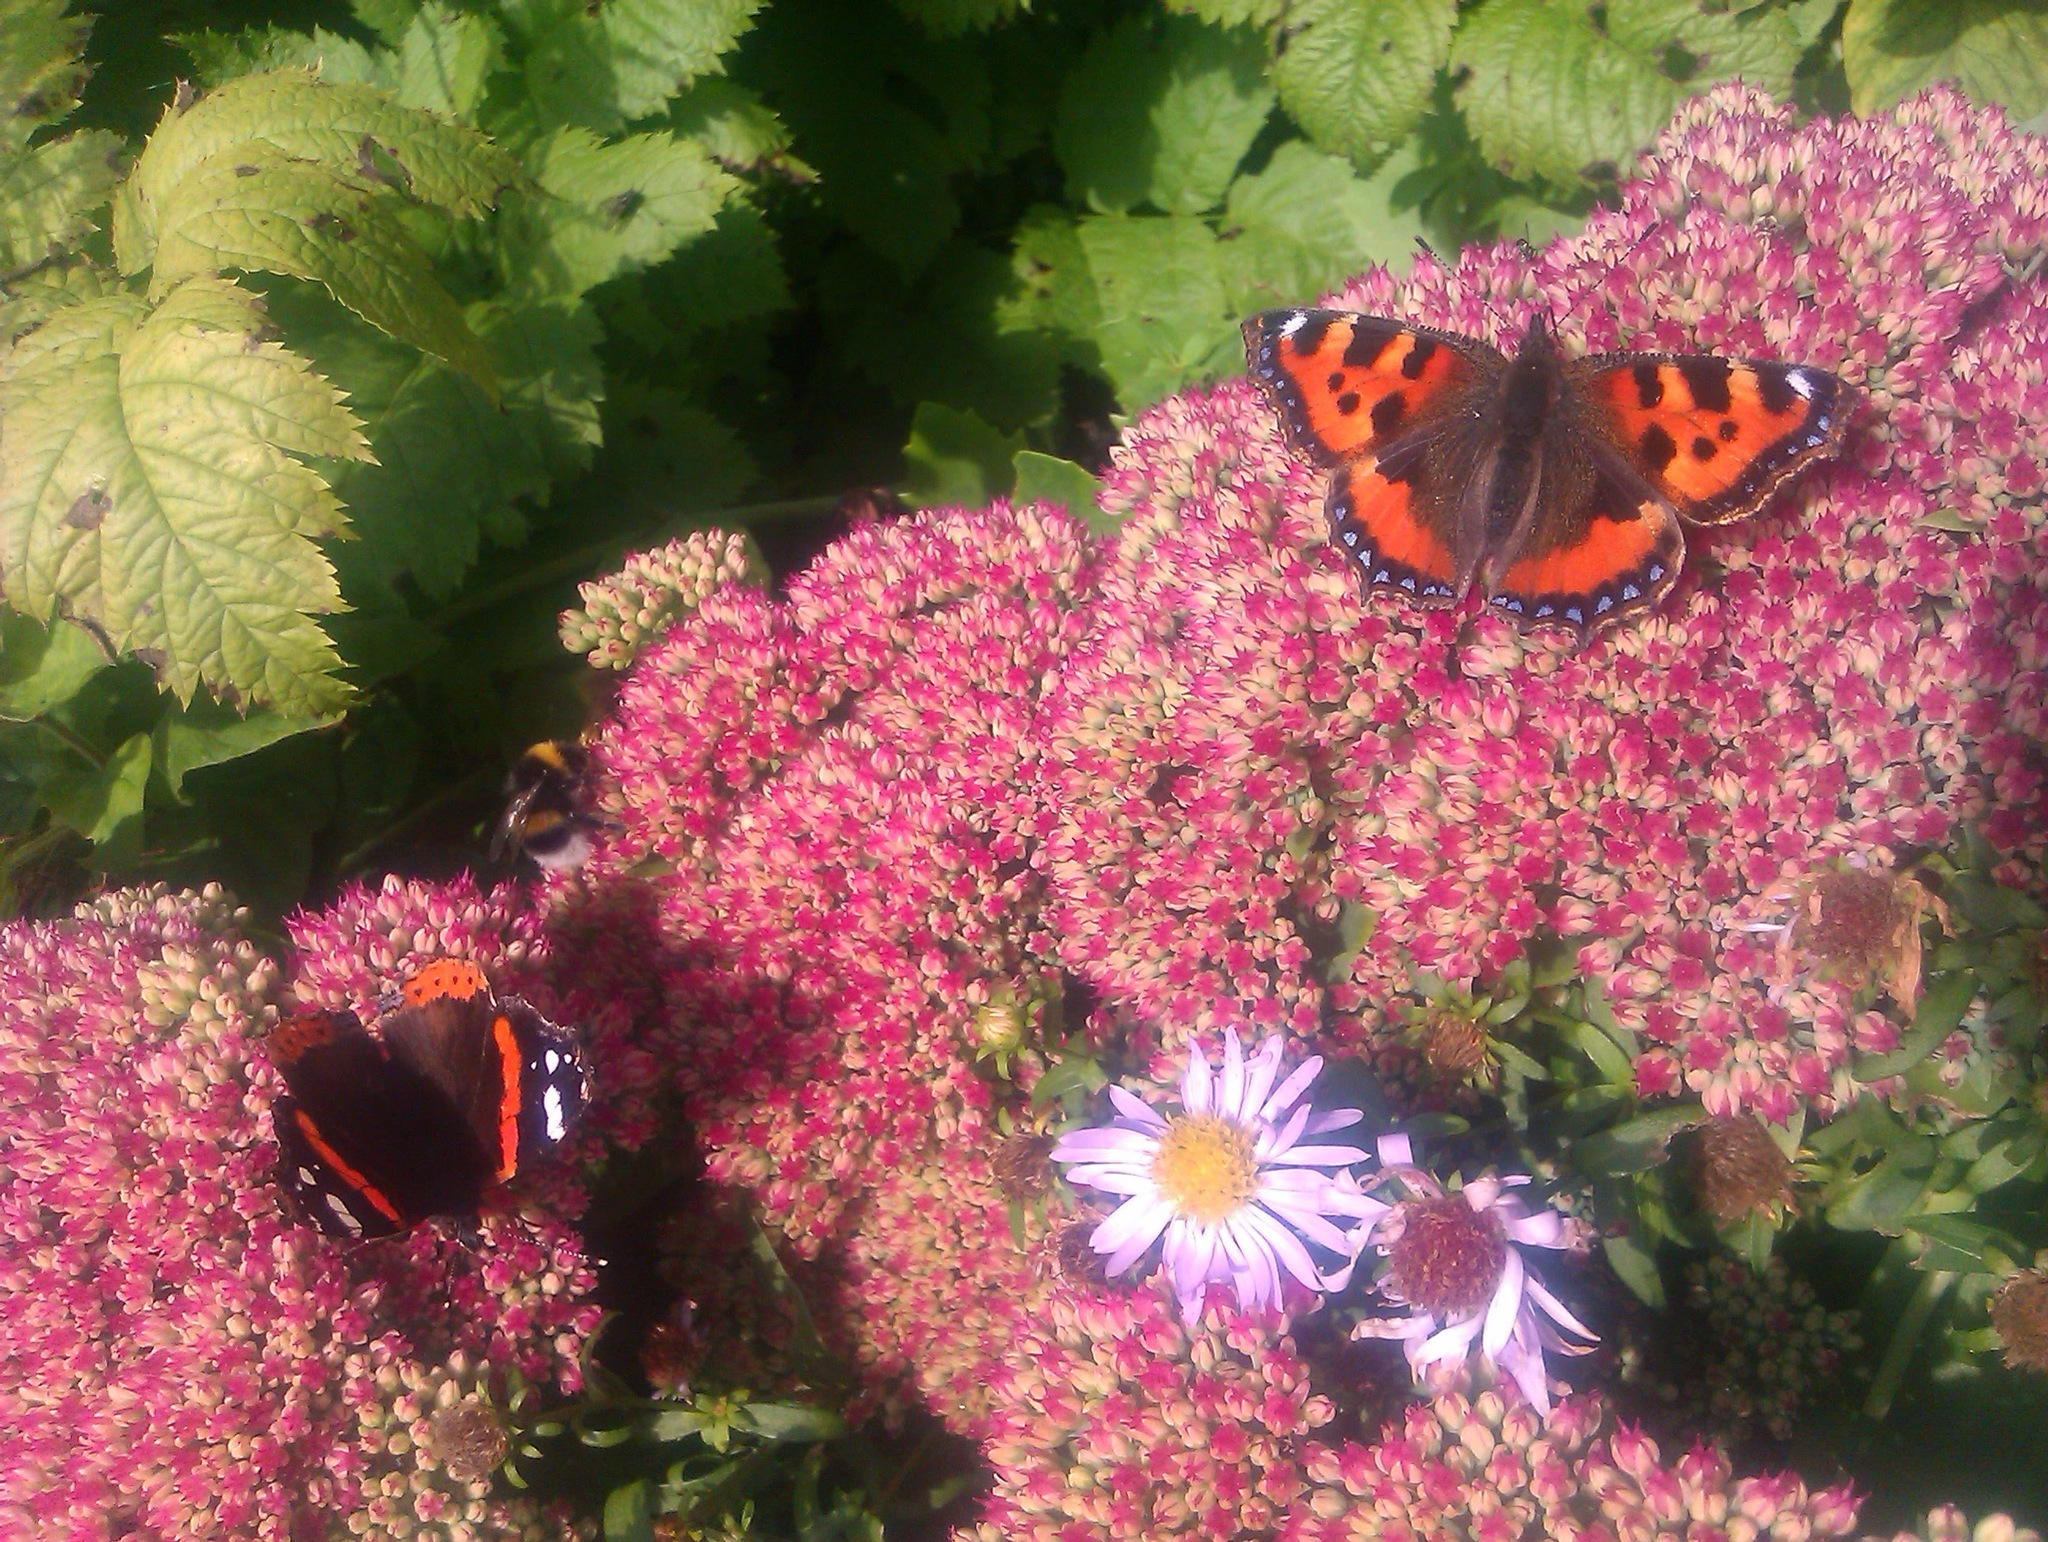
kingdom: Animalia
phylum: Arthropoda
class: Insecta
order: Lepidoptera
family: Nymphalidae
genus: Vanessa
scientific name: Vanessa atalanta
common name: Red admiral
